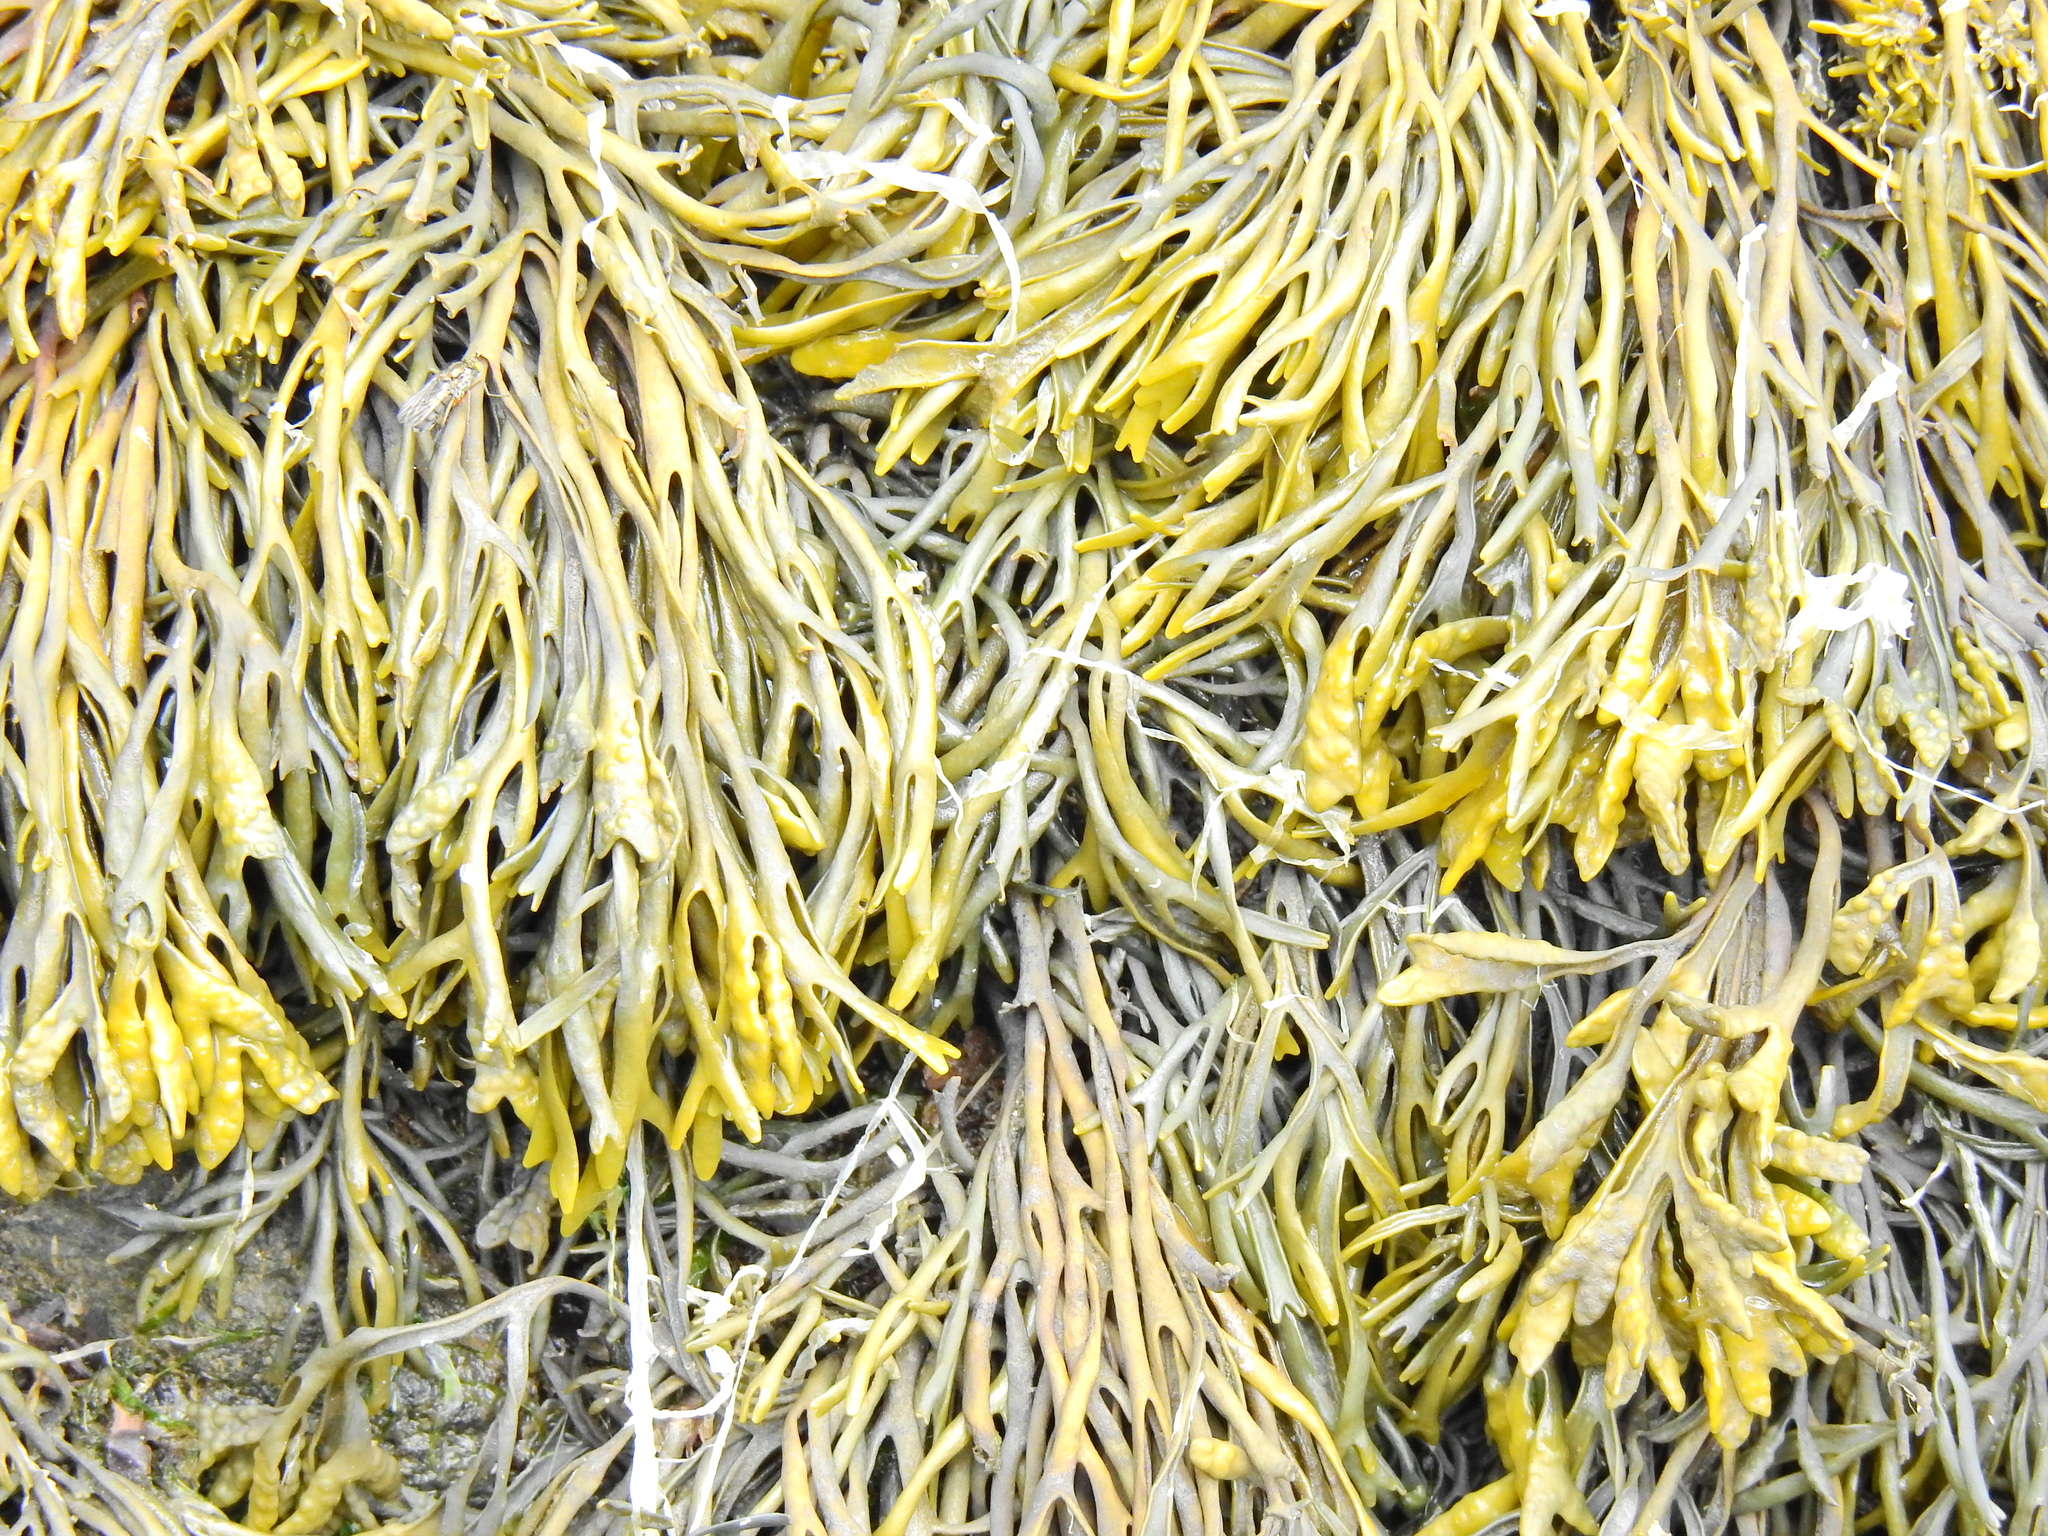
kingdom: Chromista
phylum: Ochrophyta
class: Phaeophyceae
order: Fucales
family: Fucaceae
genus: Pelvetia
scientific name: Pelvetia canaliculata
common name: Channelled wrack
